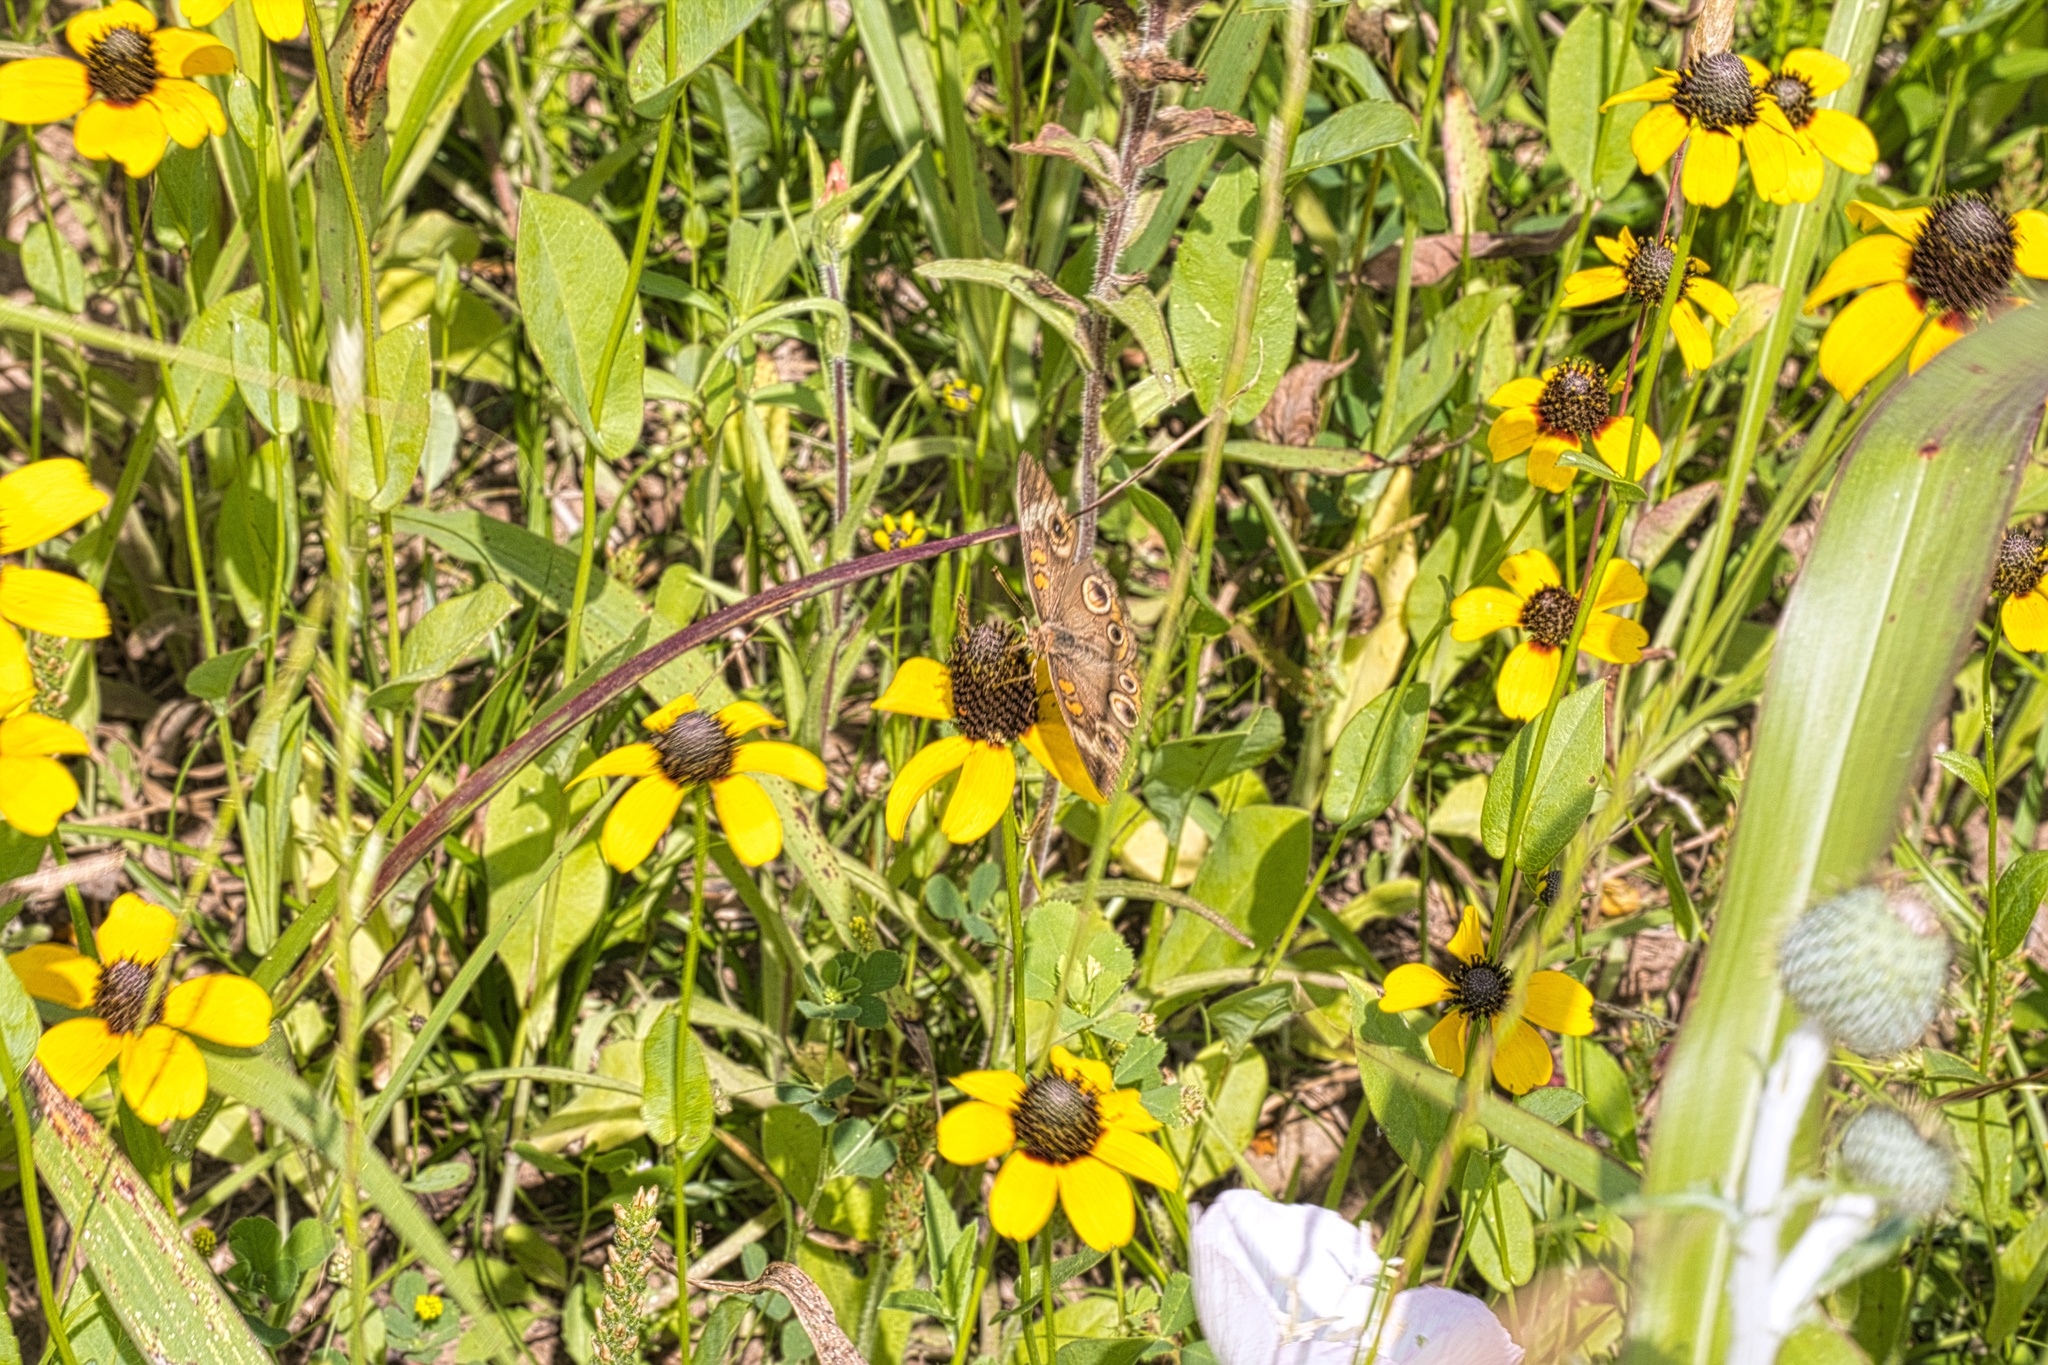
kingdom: Plantae
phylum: Tracheophyta
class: Magnoliopsida
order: Asterales
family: Asteraceae
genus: Rudbeckia
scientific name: Rudbeckia amplexicaulis
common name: Clasping-leaf coneflower
